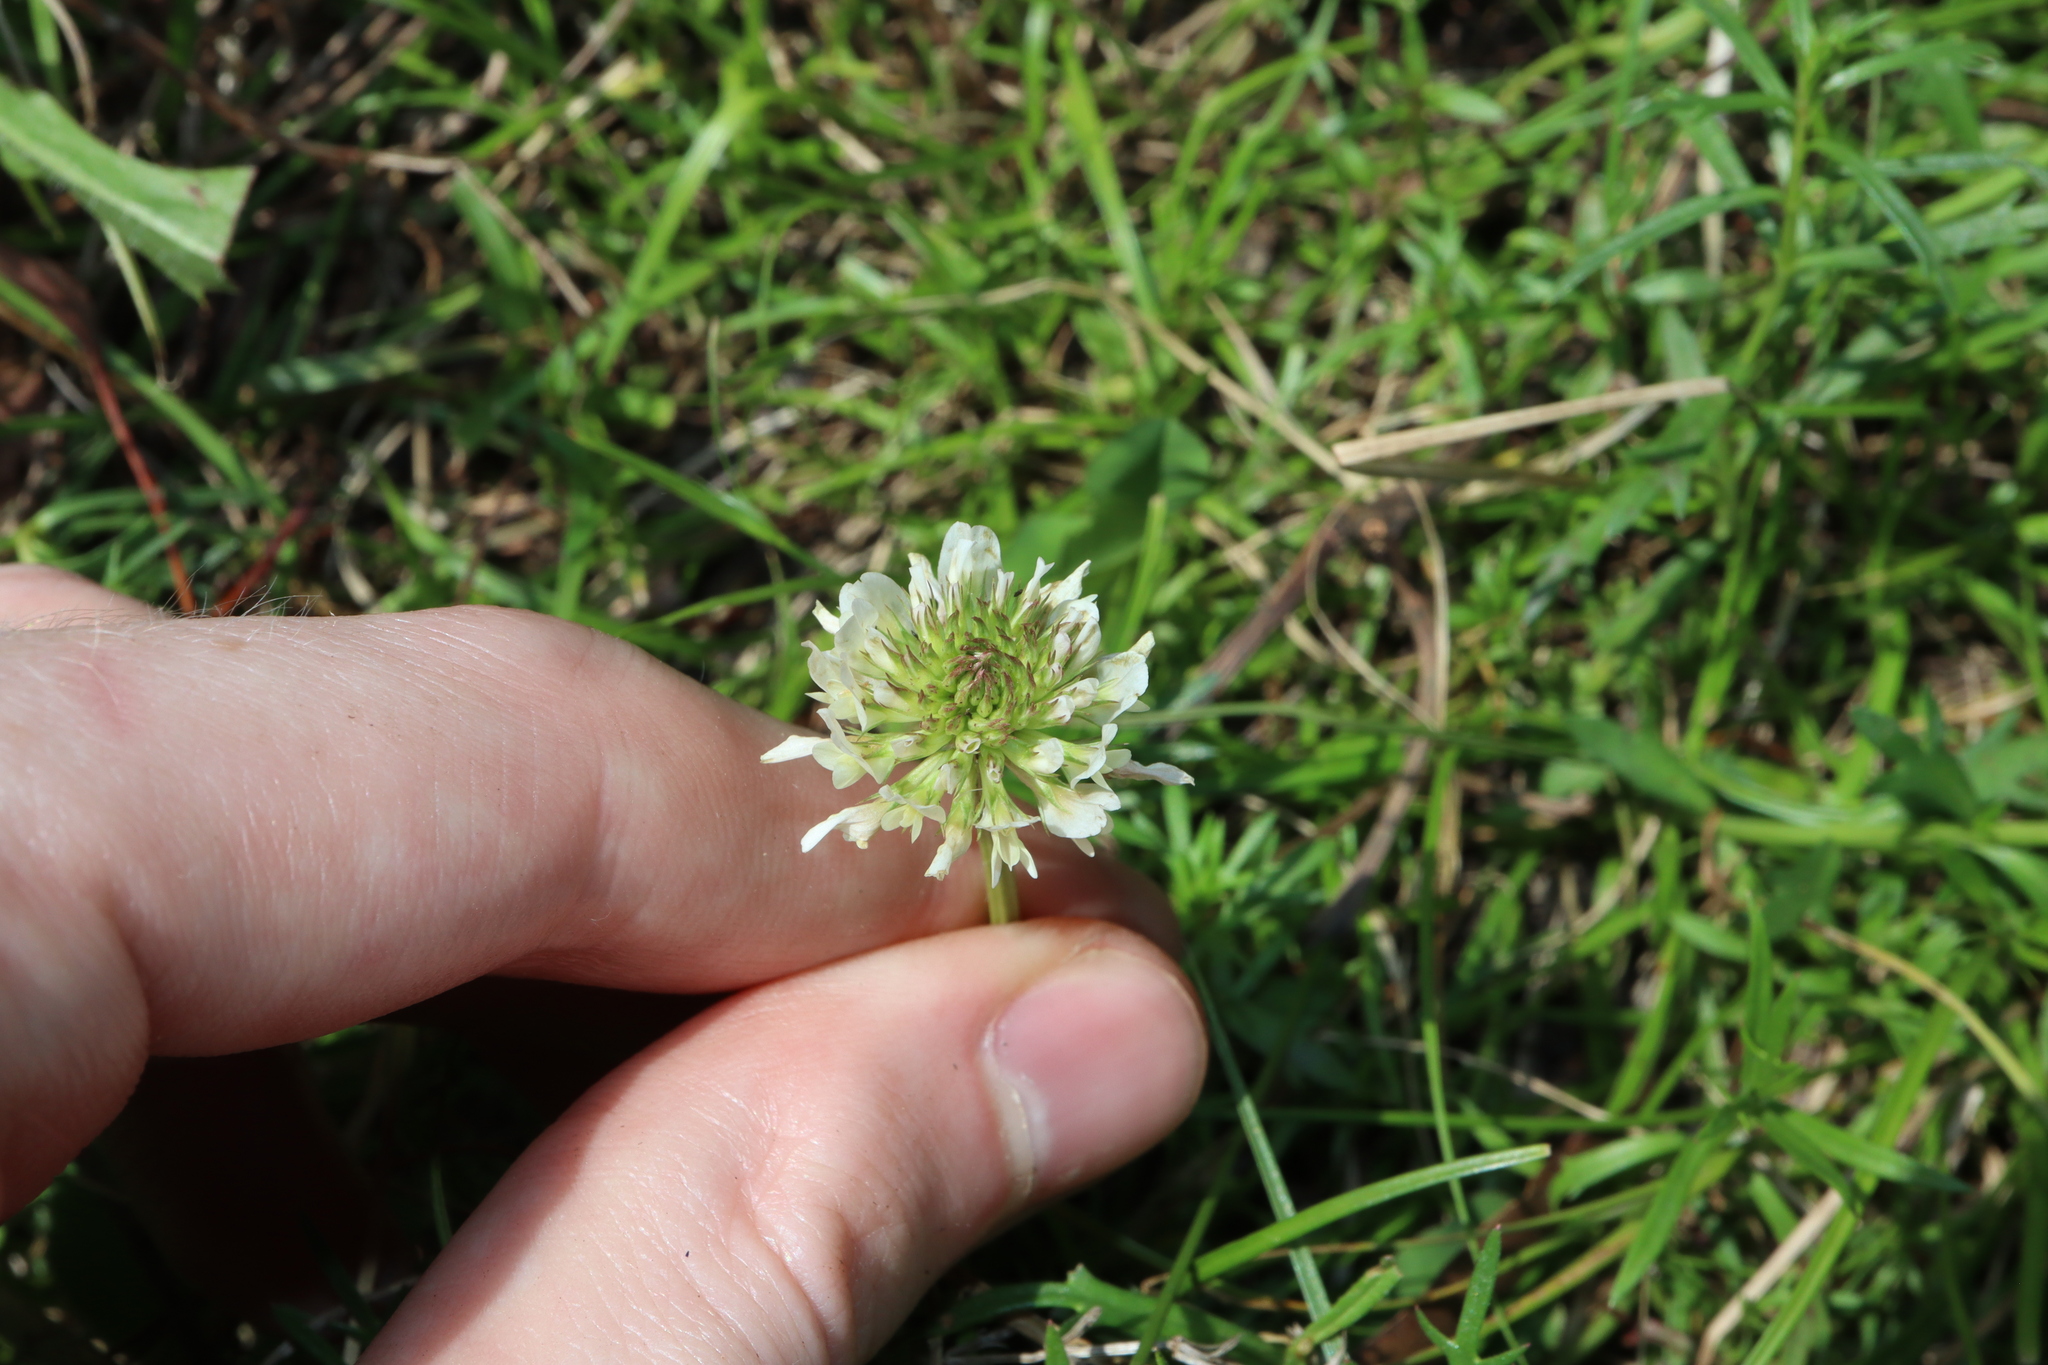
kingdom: Plantae
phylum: Tracheophyta
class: Magnoliopsida
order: Fabales
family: Fabaceae
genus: Trifolium
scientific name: Trifolium repens
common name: White clover
